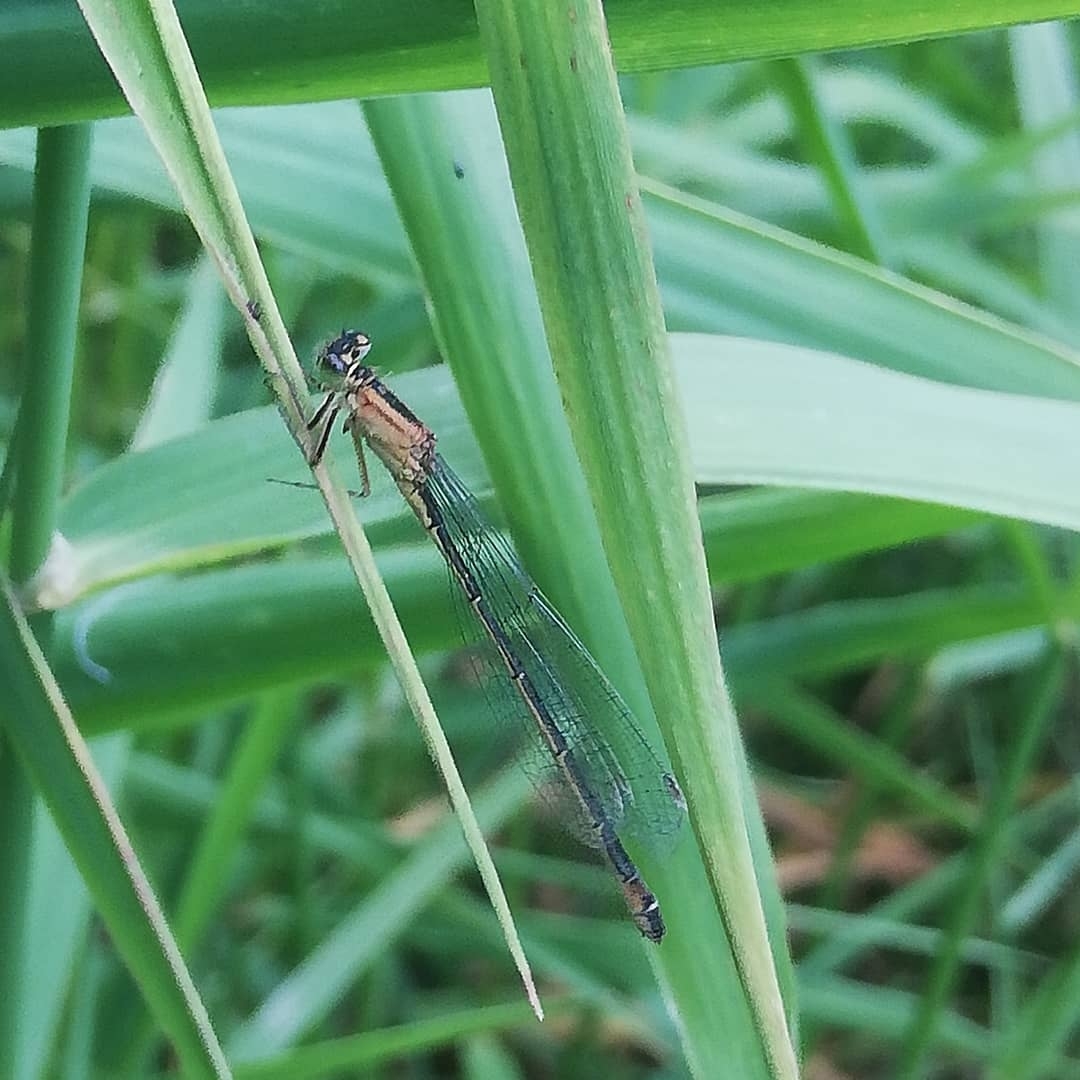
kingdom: Animalia
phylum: Arthropoda
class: Insecta
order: Odonata
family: Coenagrionidae
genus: Ischnura
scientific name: Ischnura elegans
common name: Blue-tailed damselfly
